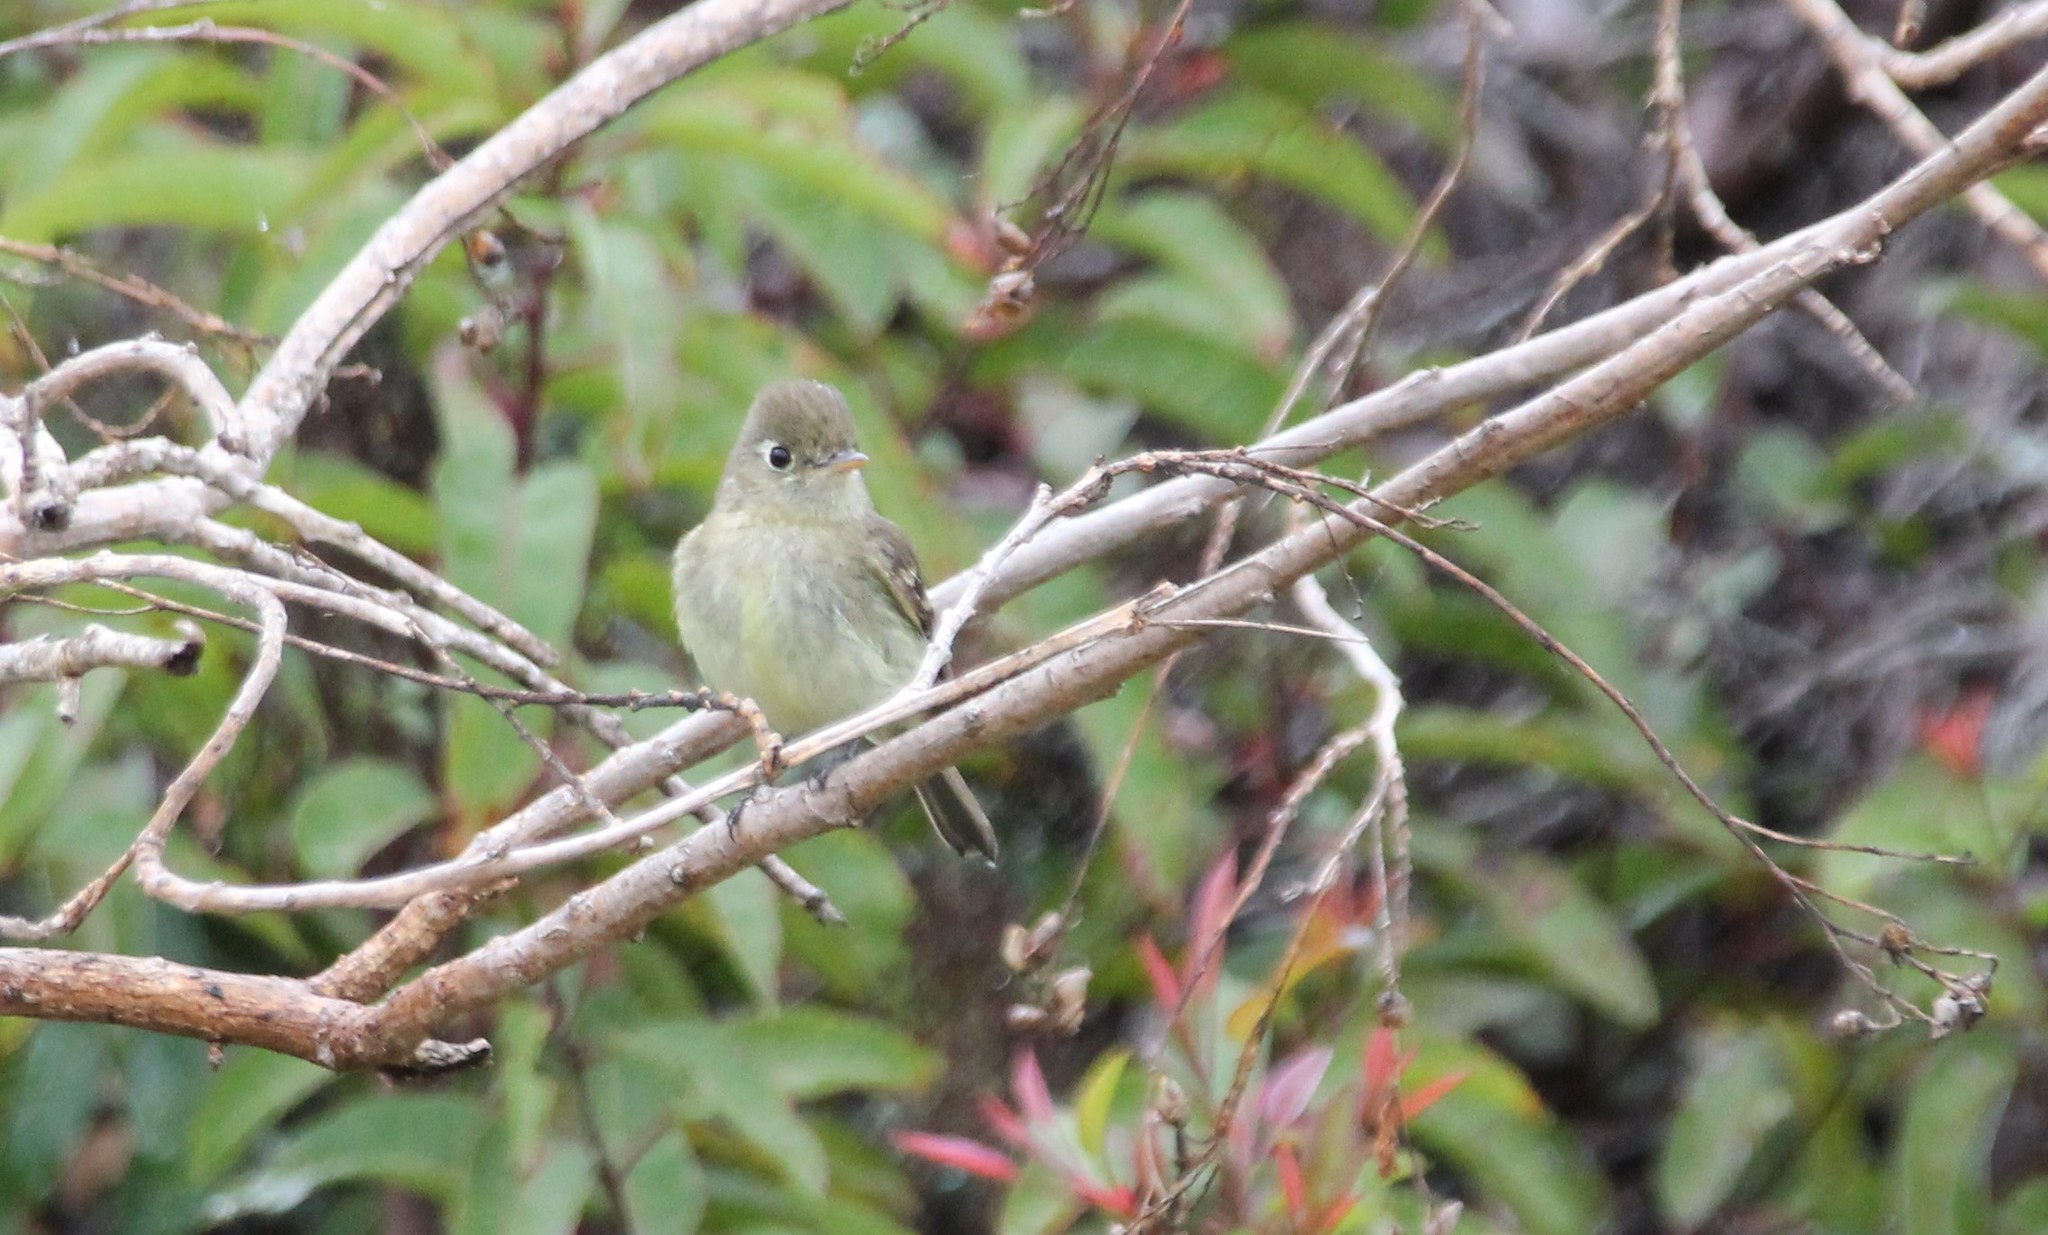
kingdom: Animalia
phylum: Chordata
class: Aves
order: Passeriformes
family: Tyrannidae
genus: Empidonax
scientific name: Empidonax difficilis
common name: Pacific-slope flycatcher
